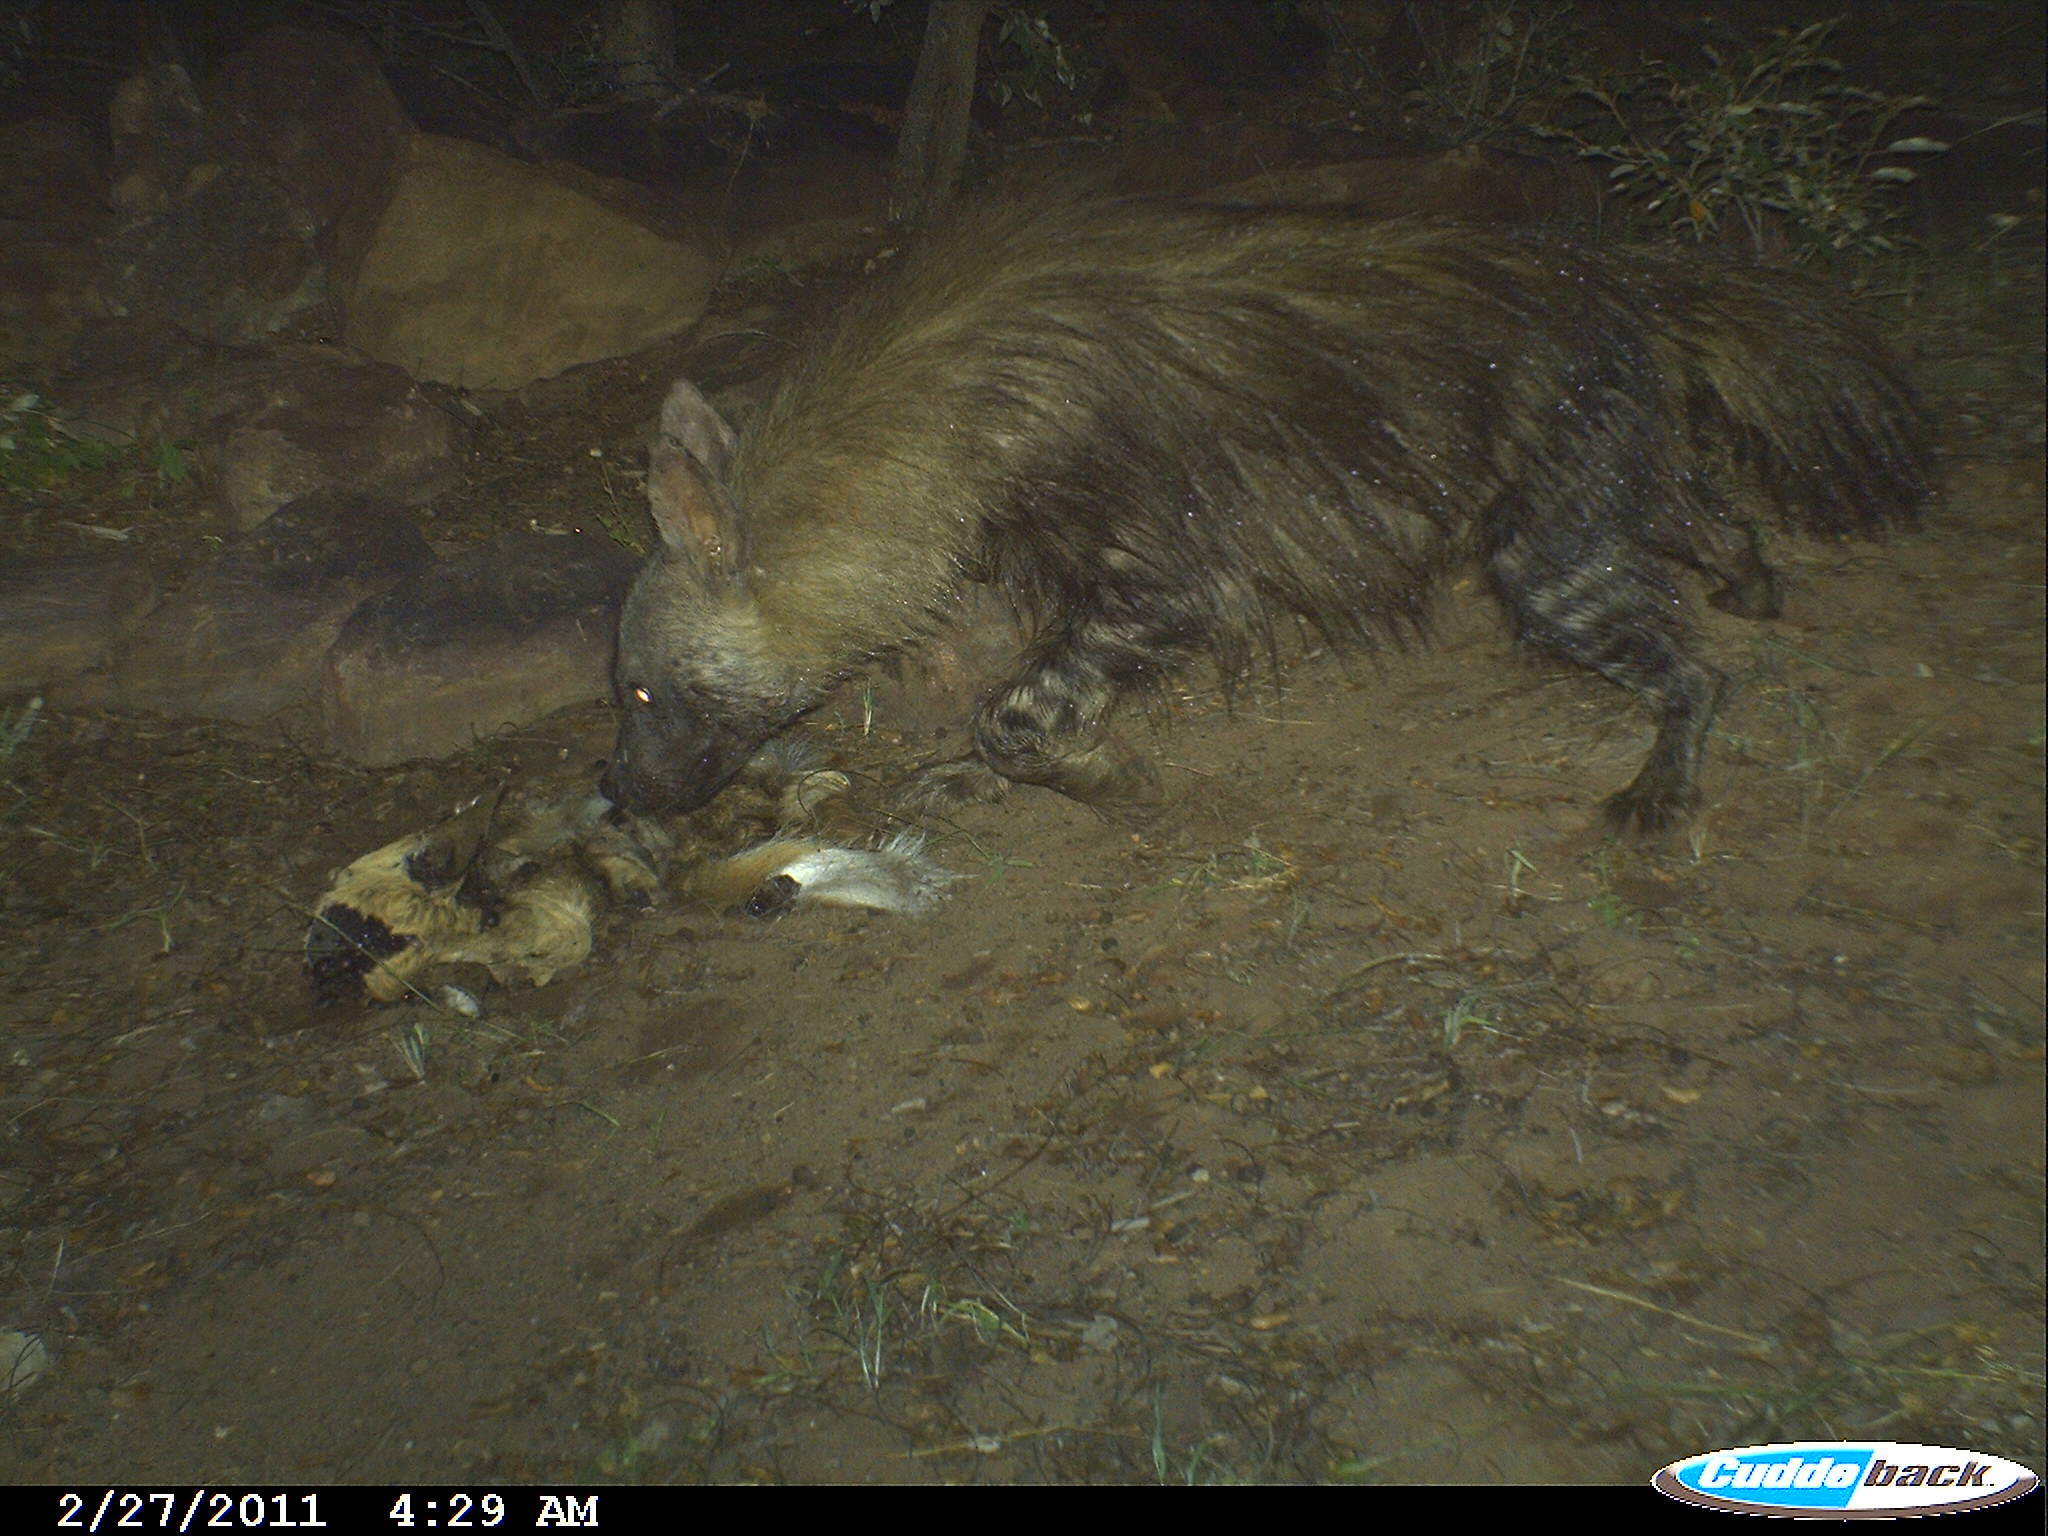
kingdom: Animalia
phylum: Chordata
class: Mammalia
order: Carnivora
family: Hyaenidae
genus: Hyaena
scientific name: Hyaena brunnea
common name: Brown hyena
